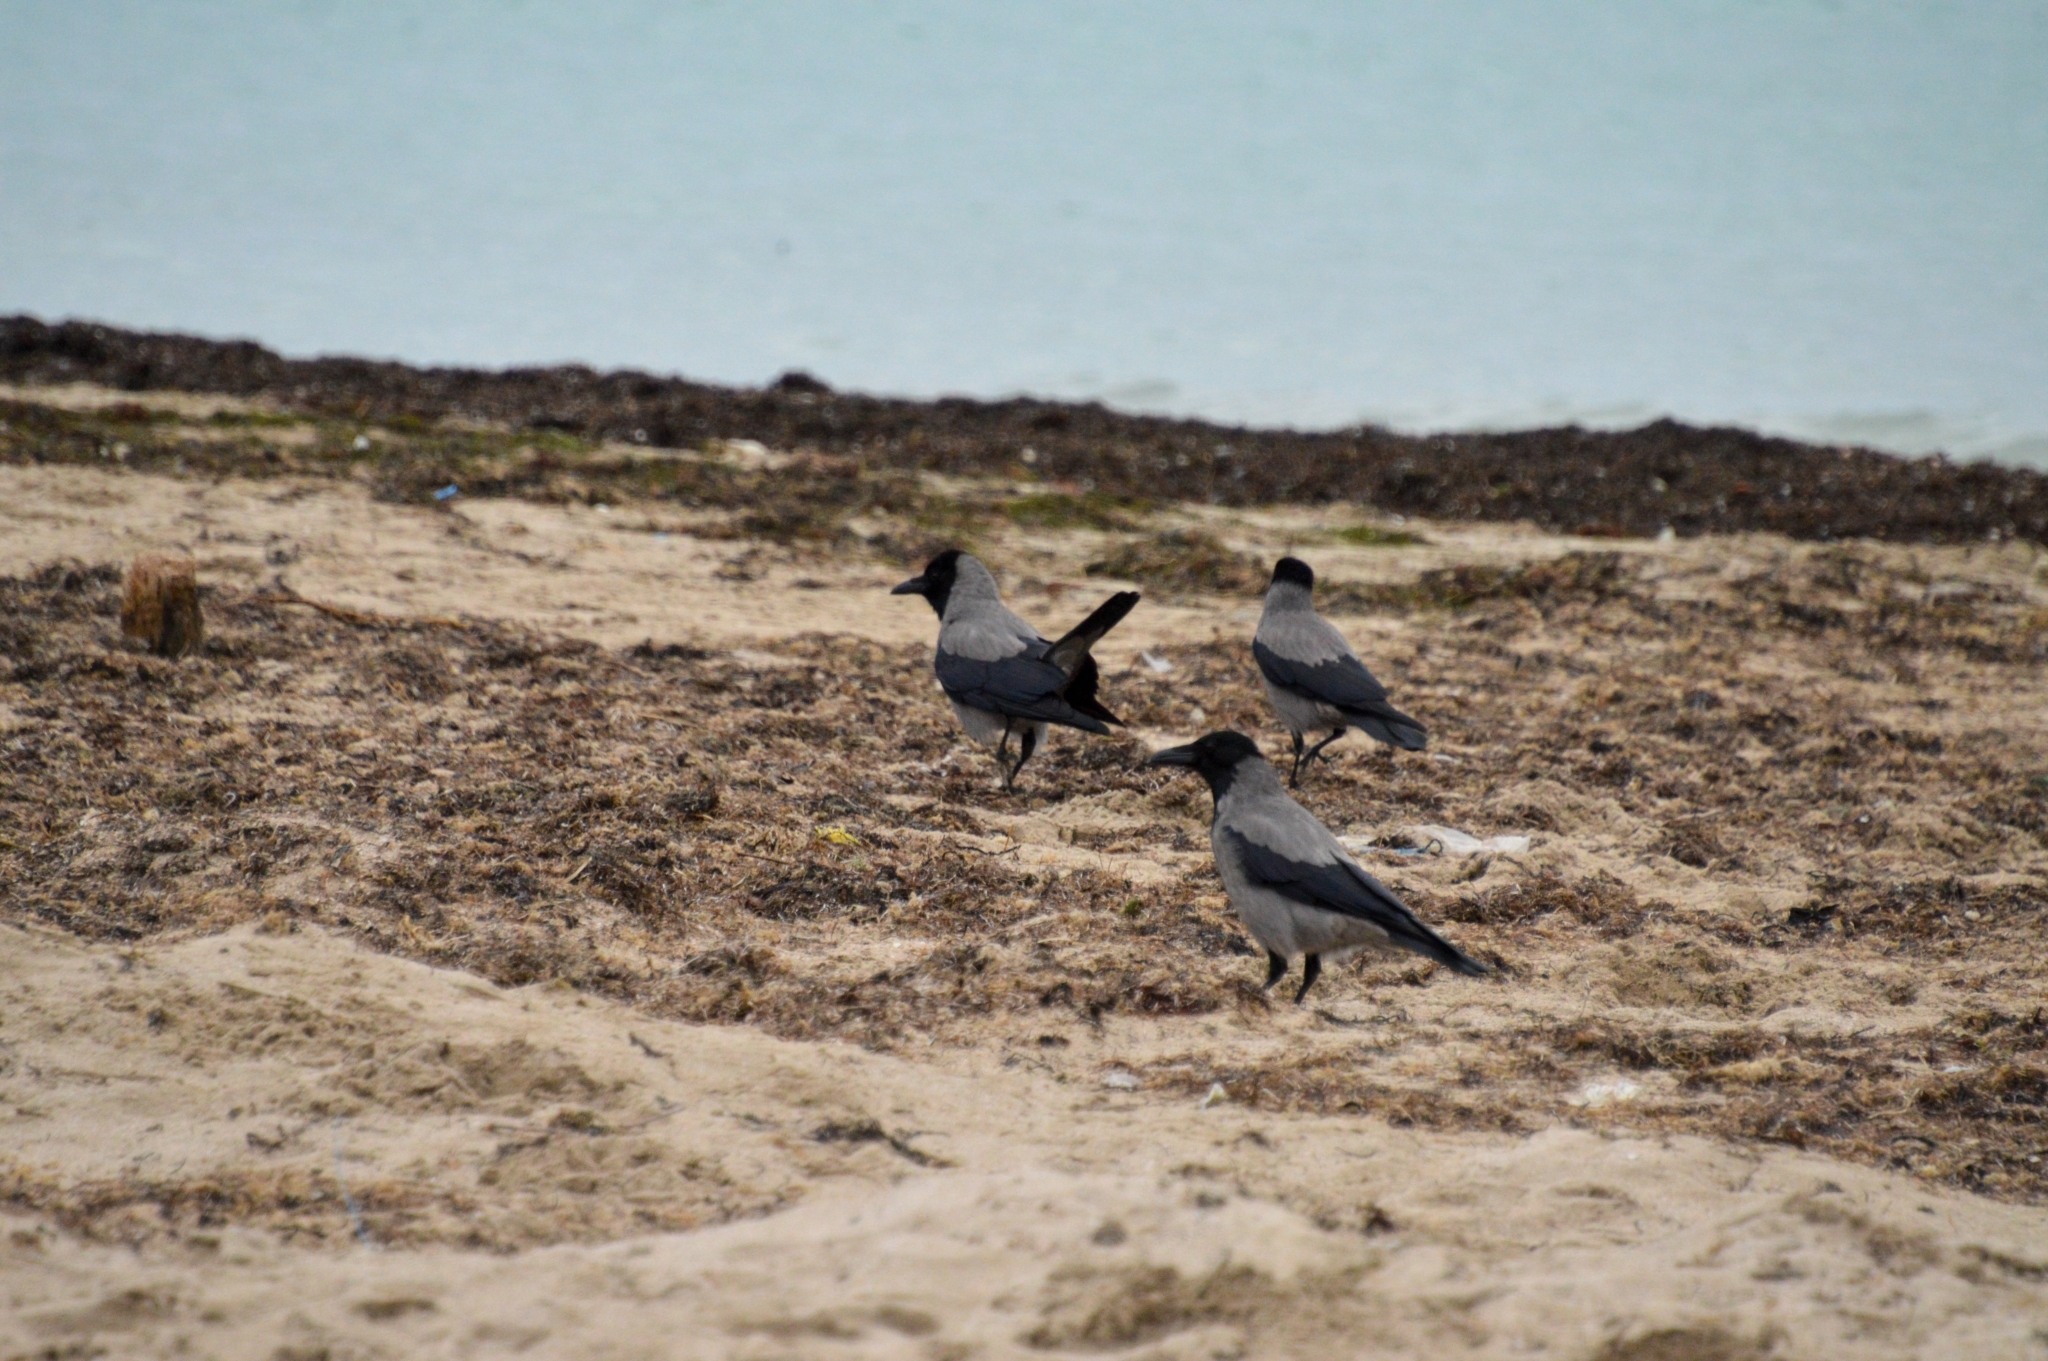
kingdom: Animalia
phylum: Chordata
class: Aves
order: Passeriformes
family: Corvidae
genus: Corvus
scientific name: Corvus cornix
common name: Hooded crow
